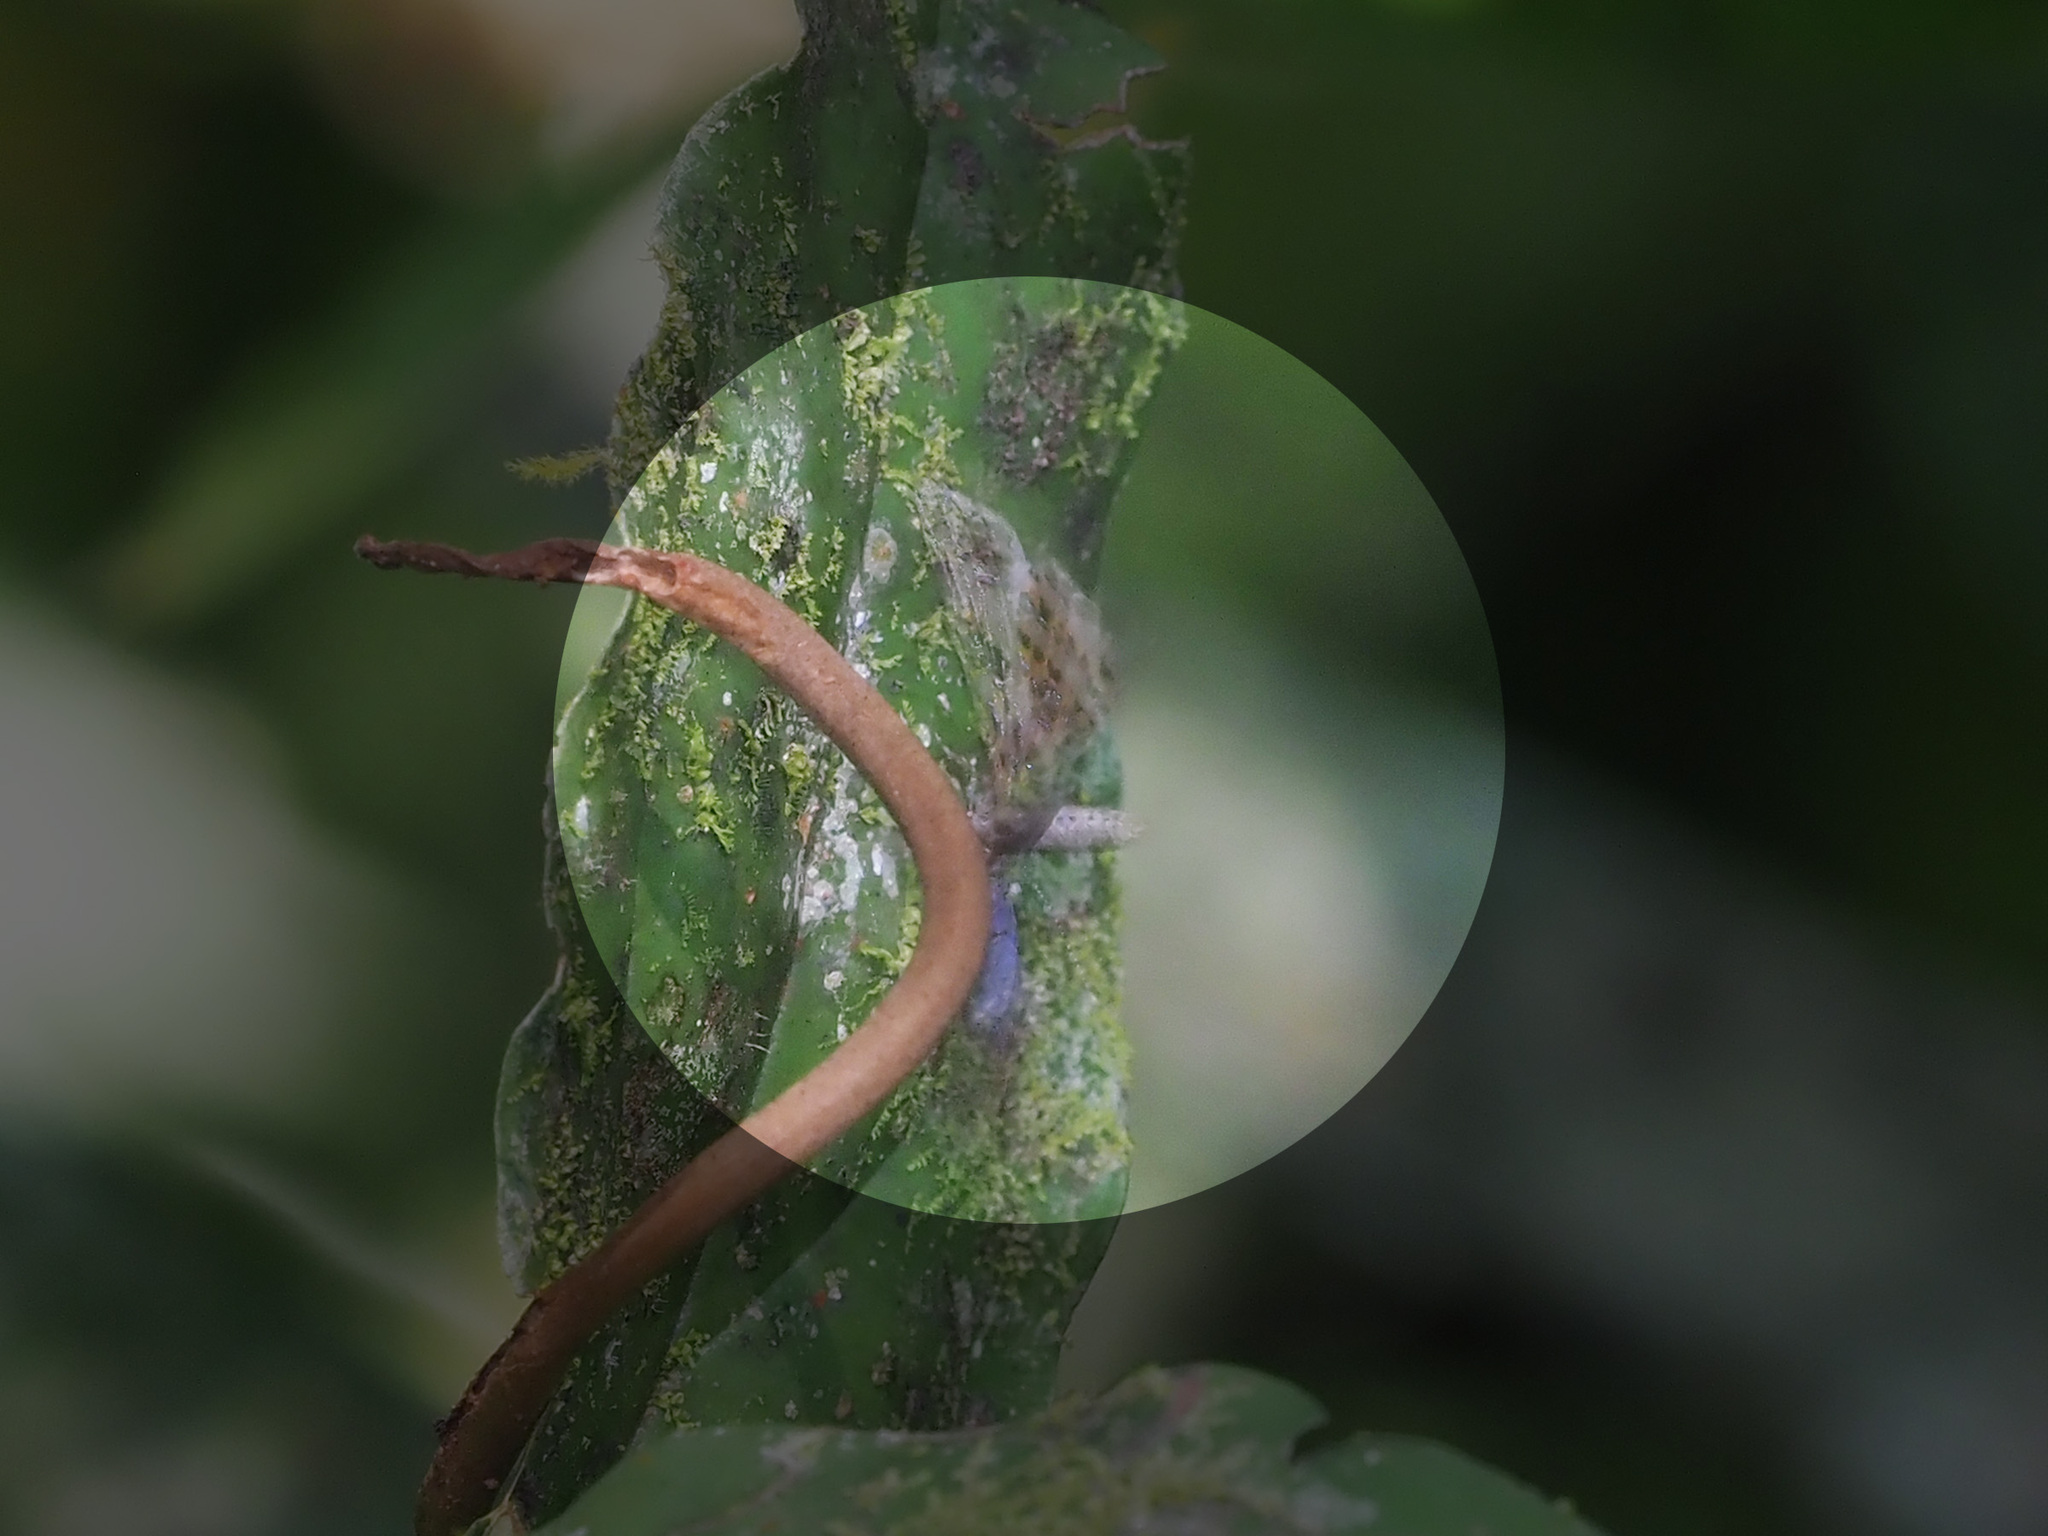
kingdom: Animalia
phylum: Arthropoda
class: Insecta
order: Lepidoptera
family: Lycaenidae
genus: Catapaecilma
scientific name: Catapaecilma elegans
